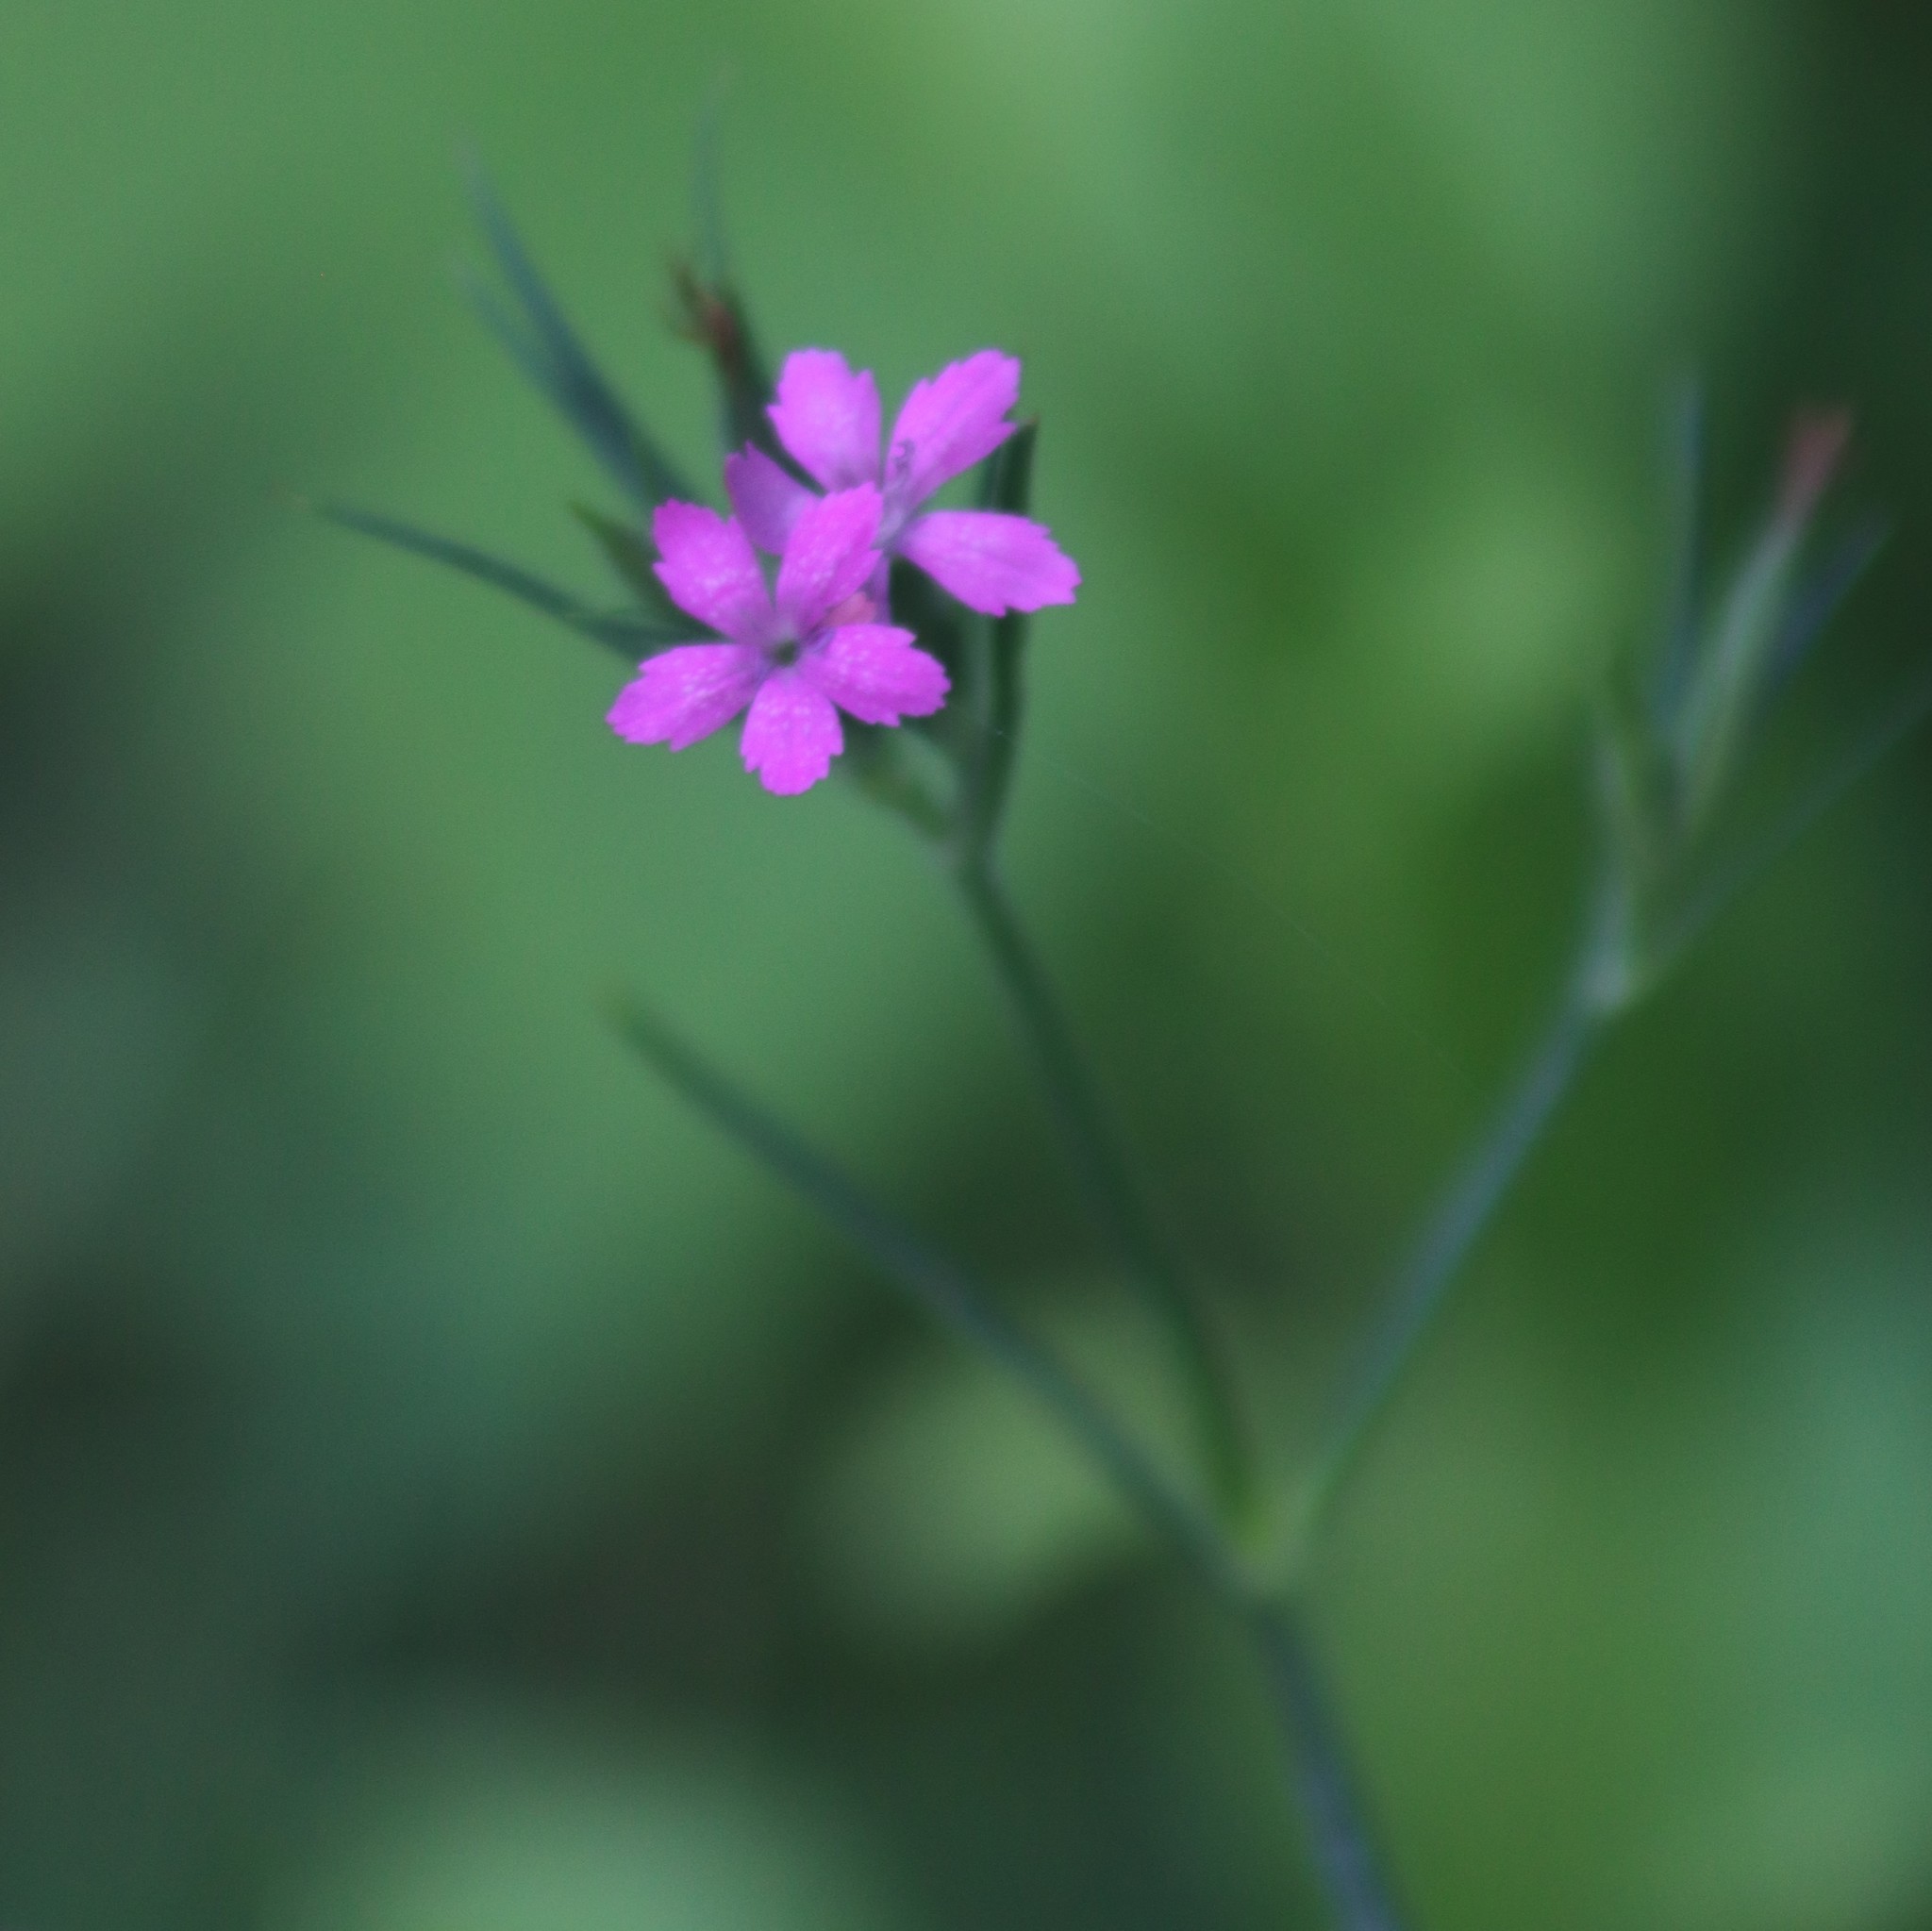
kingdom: Plantae
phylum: Tracheophyta
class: Magnoliopsida
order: Caryophyllales
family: Caryophyllaceae
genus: Dianthus
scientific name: Dianthus armeria
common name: Deptford pink
